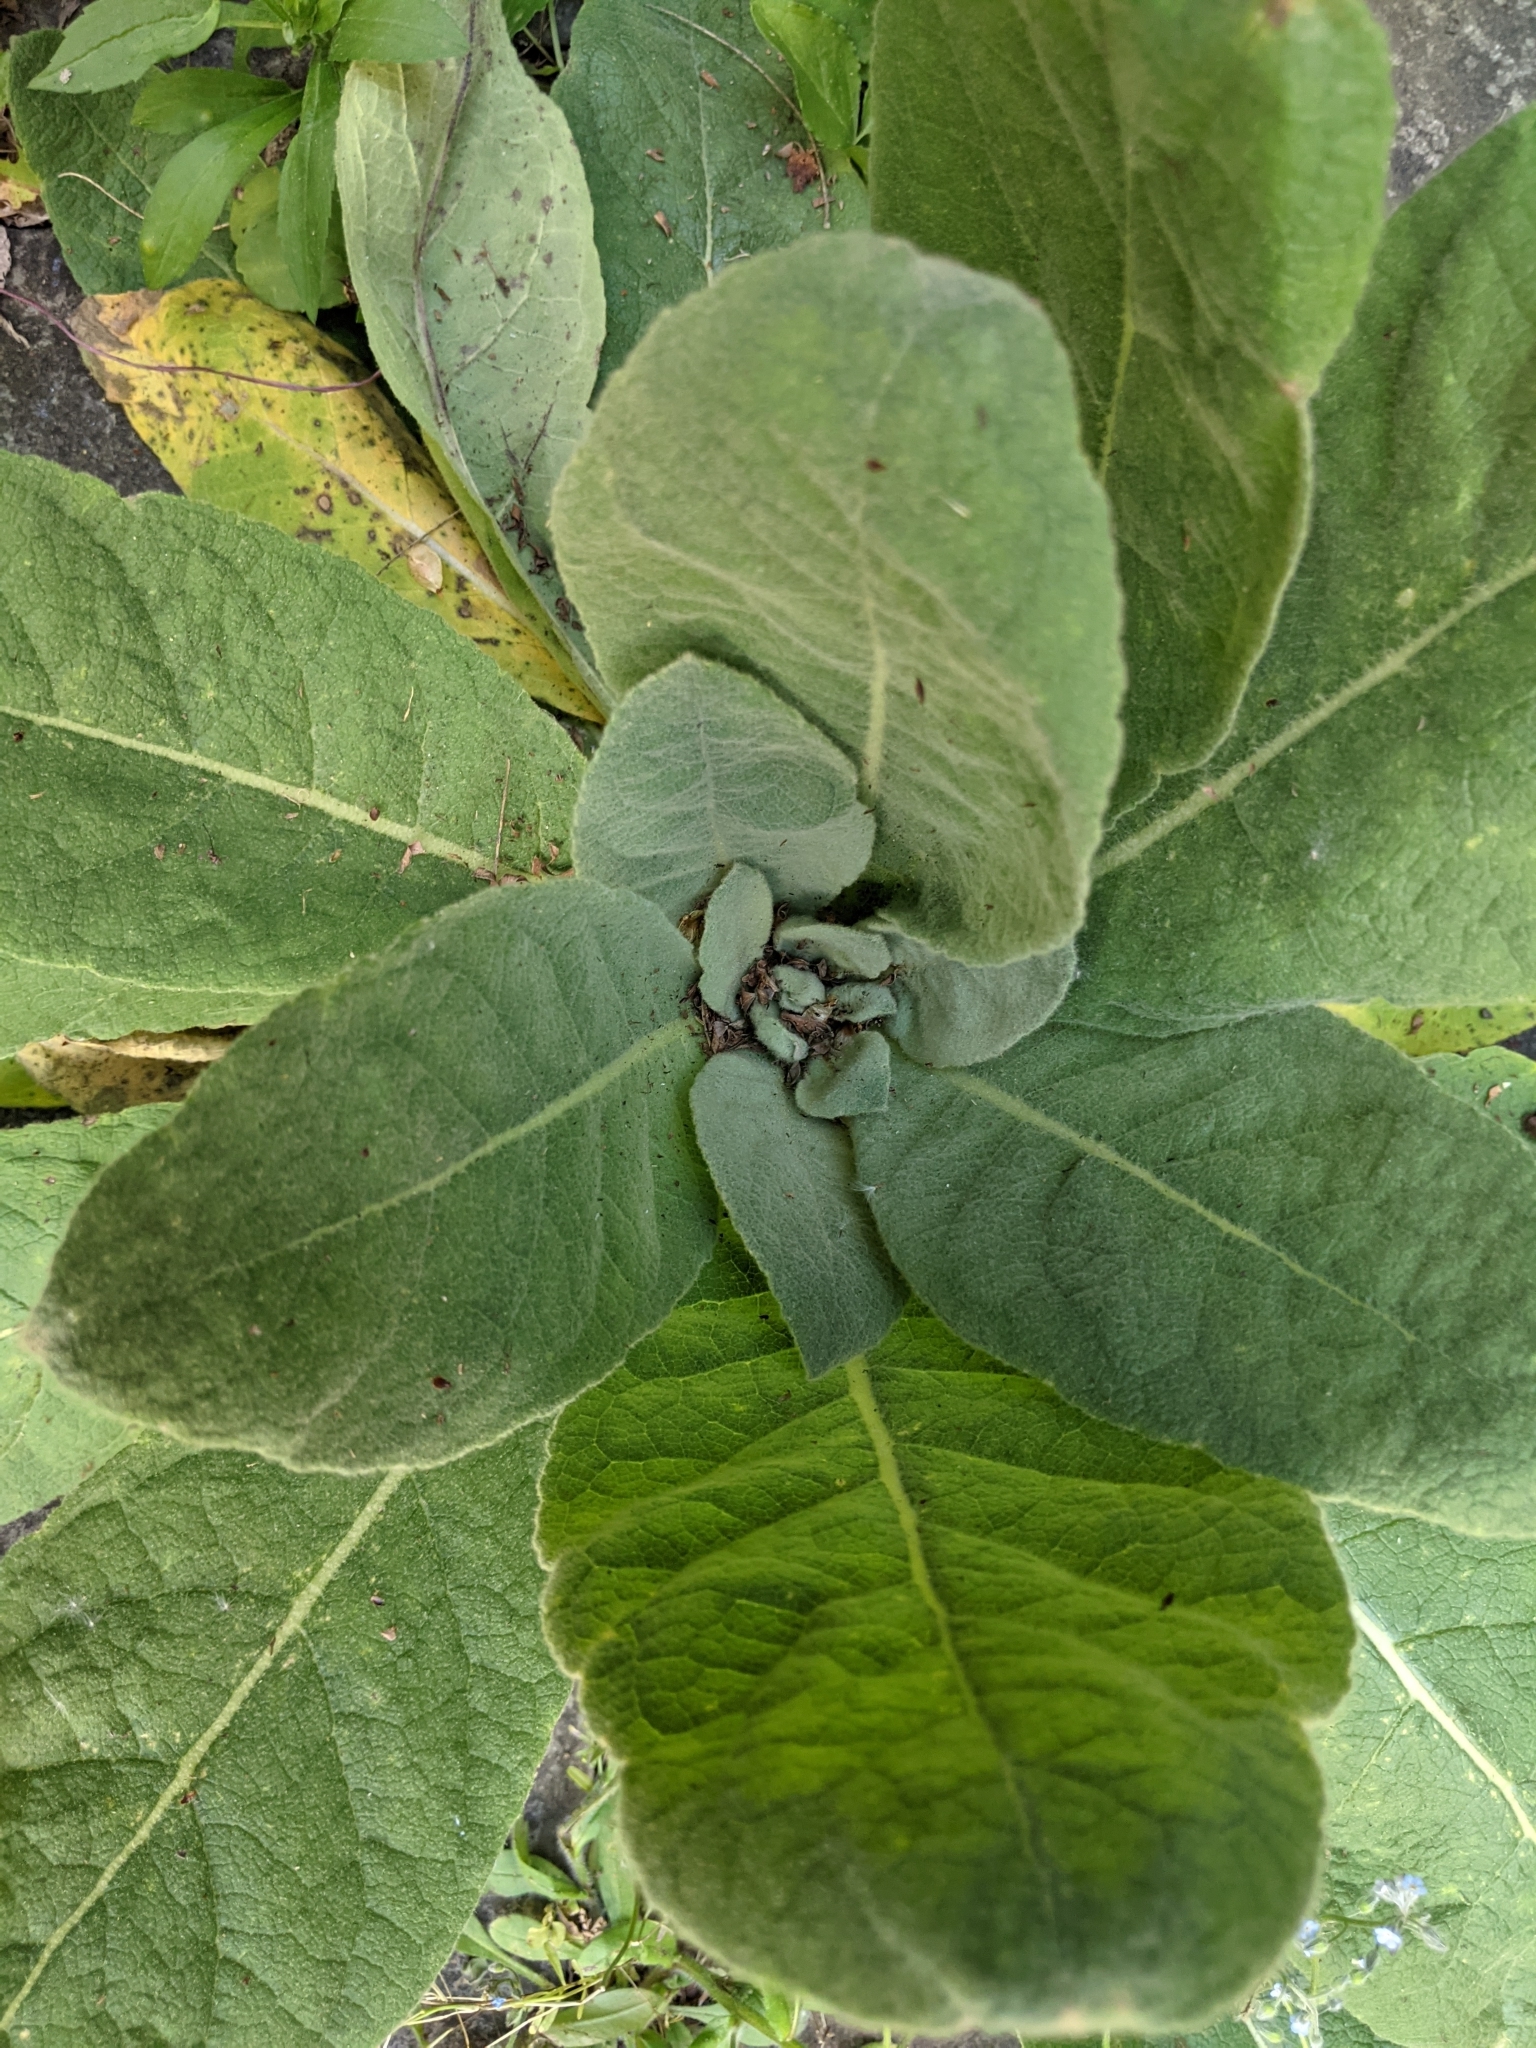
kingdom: Plantae
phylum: Tracheophyta
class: Magnoliopsida
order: Lamiales
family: Scrophulariaceae
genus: Verbascum
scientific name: Verbascum thapsus
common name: Common mullein
